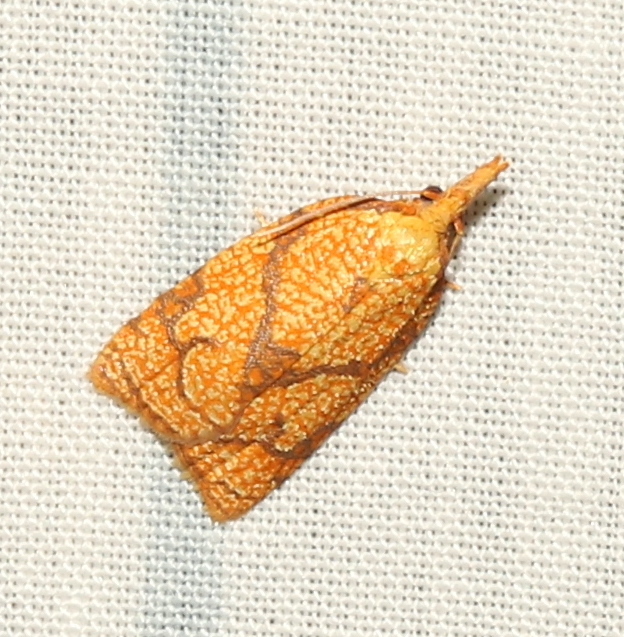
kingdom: Animalia
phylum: Arthropoda
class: Insecta
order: Lepidoptera
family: Tortricidae
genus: Cenopis
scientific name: Cenopis reticulatana
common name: Reticulated fruitworm moth
